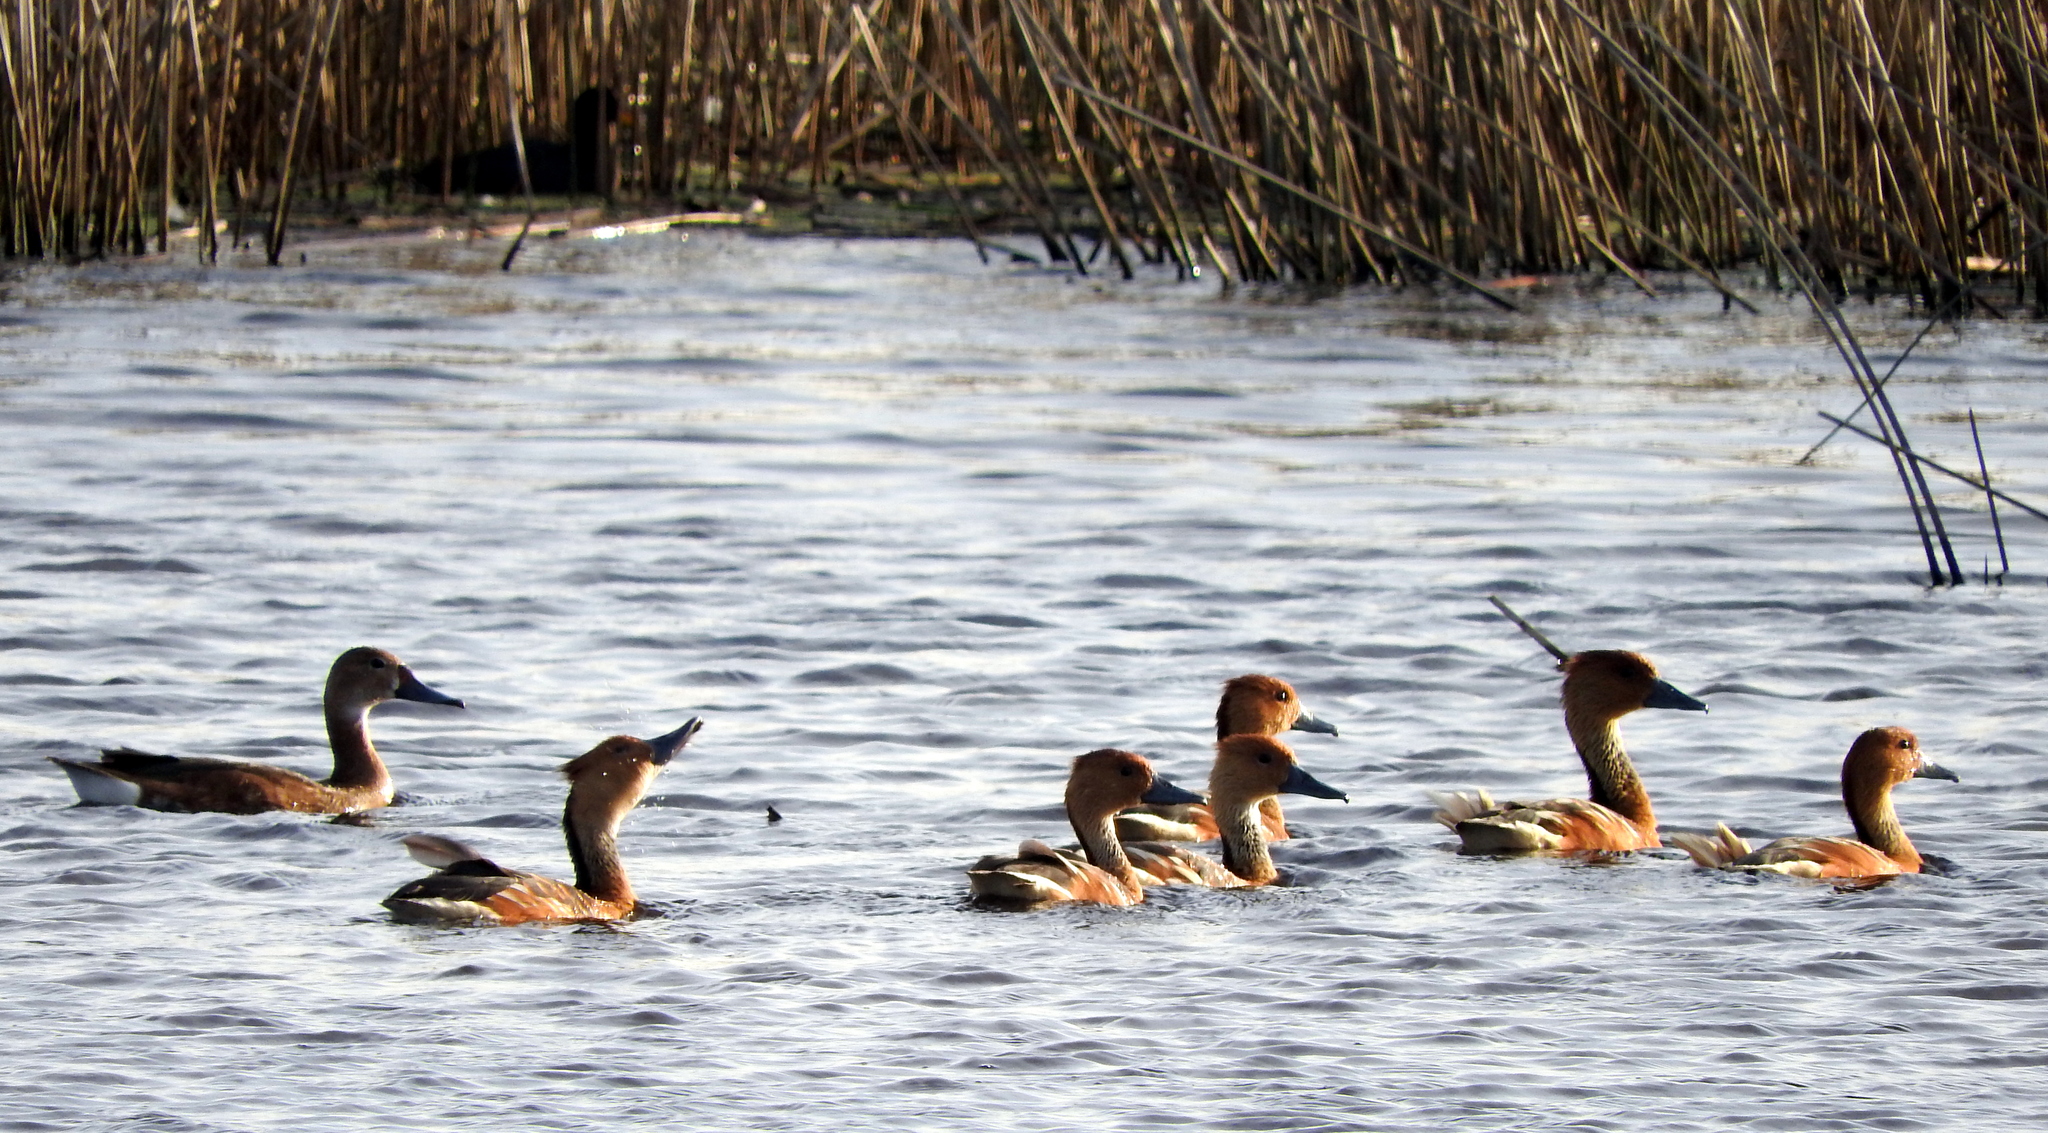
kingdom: Animalia
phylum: Chordata
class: Aves
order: Anseriformes
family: Anatidae
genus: Dendrocygna
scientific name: Dendrocygna bicolor
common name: Fulvous whistling duck
